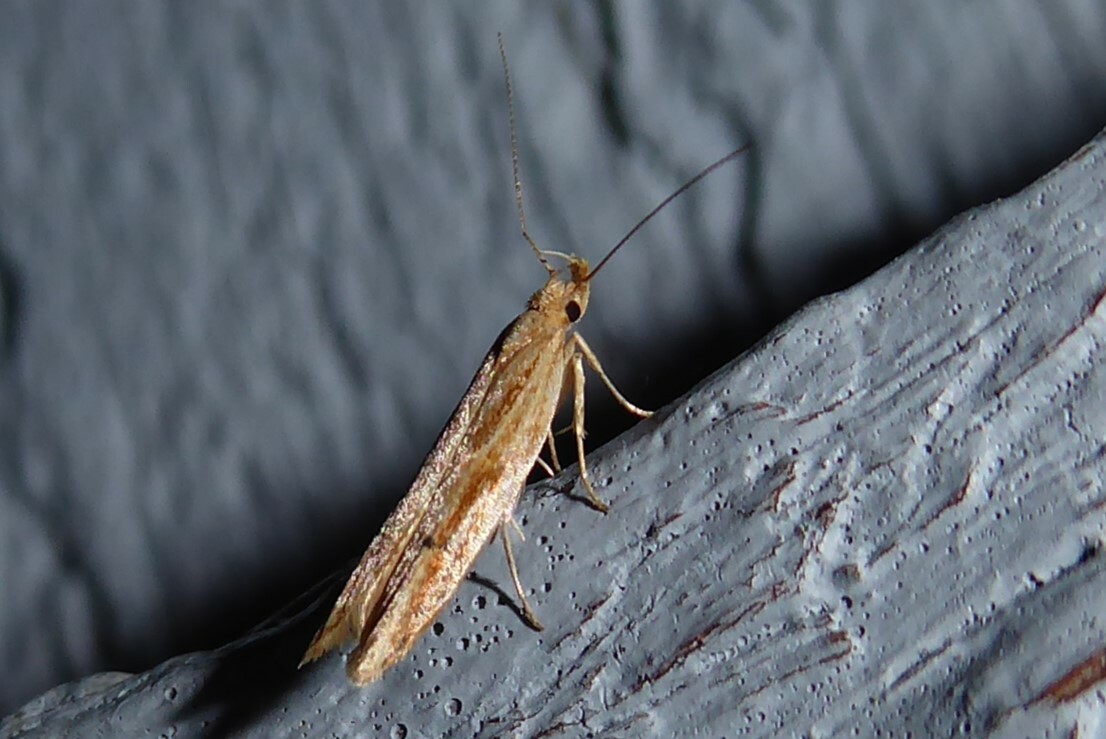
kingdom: Animalia
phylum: Arthropoda
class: Insecta
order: Lepidoptera
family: Depressariidae
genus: Eutorna
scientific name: Eutorna symmorpha
